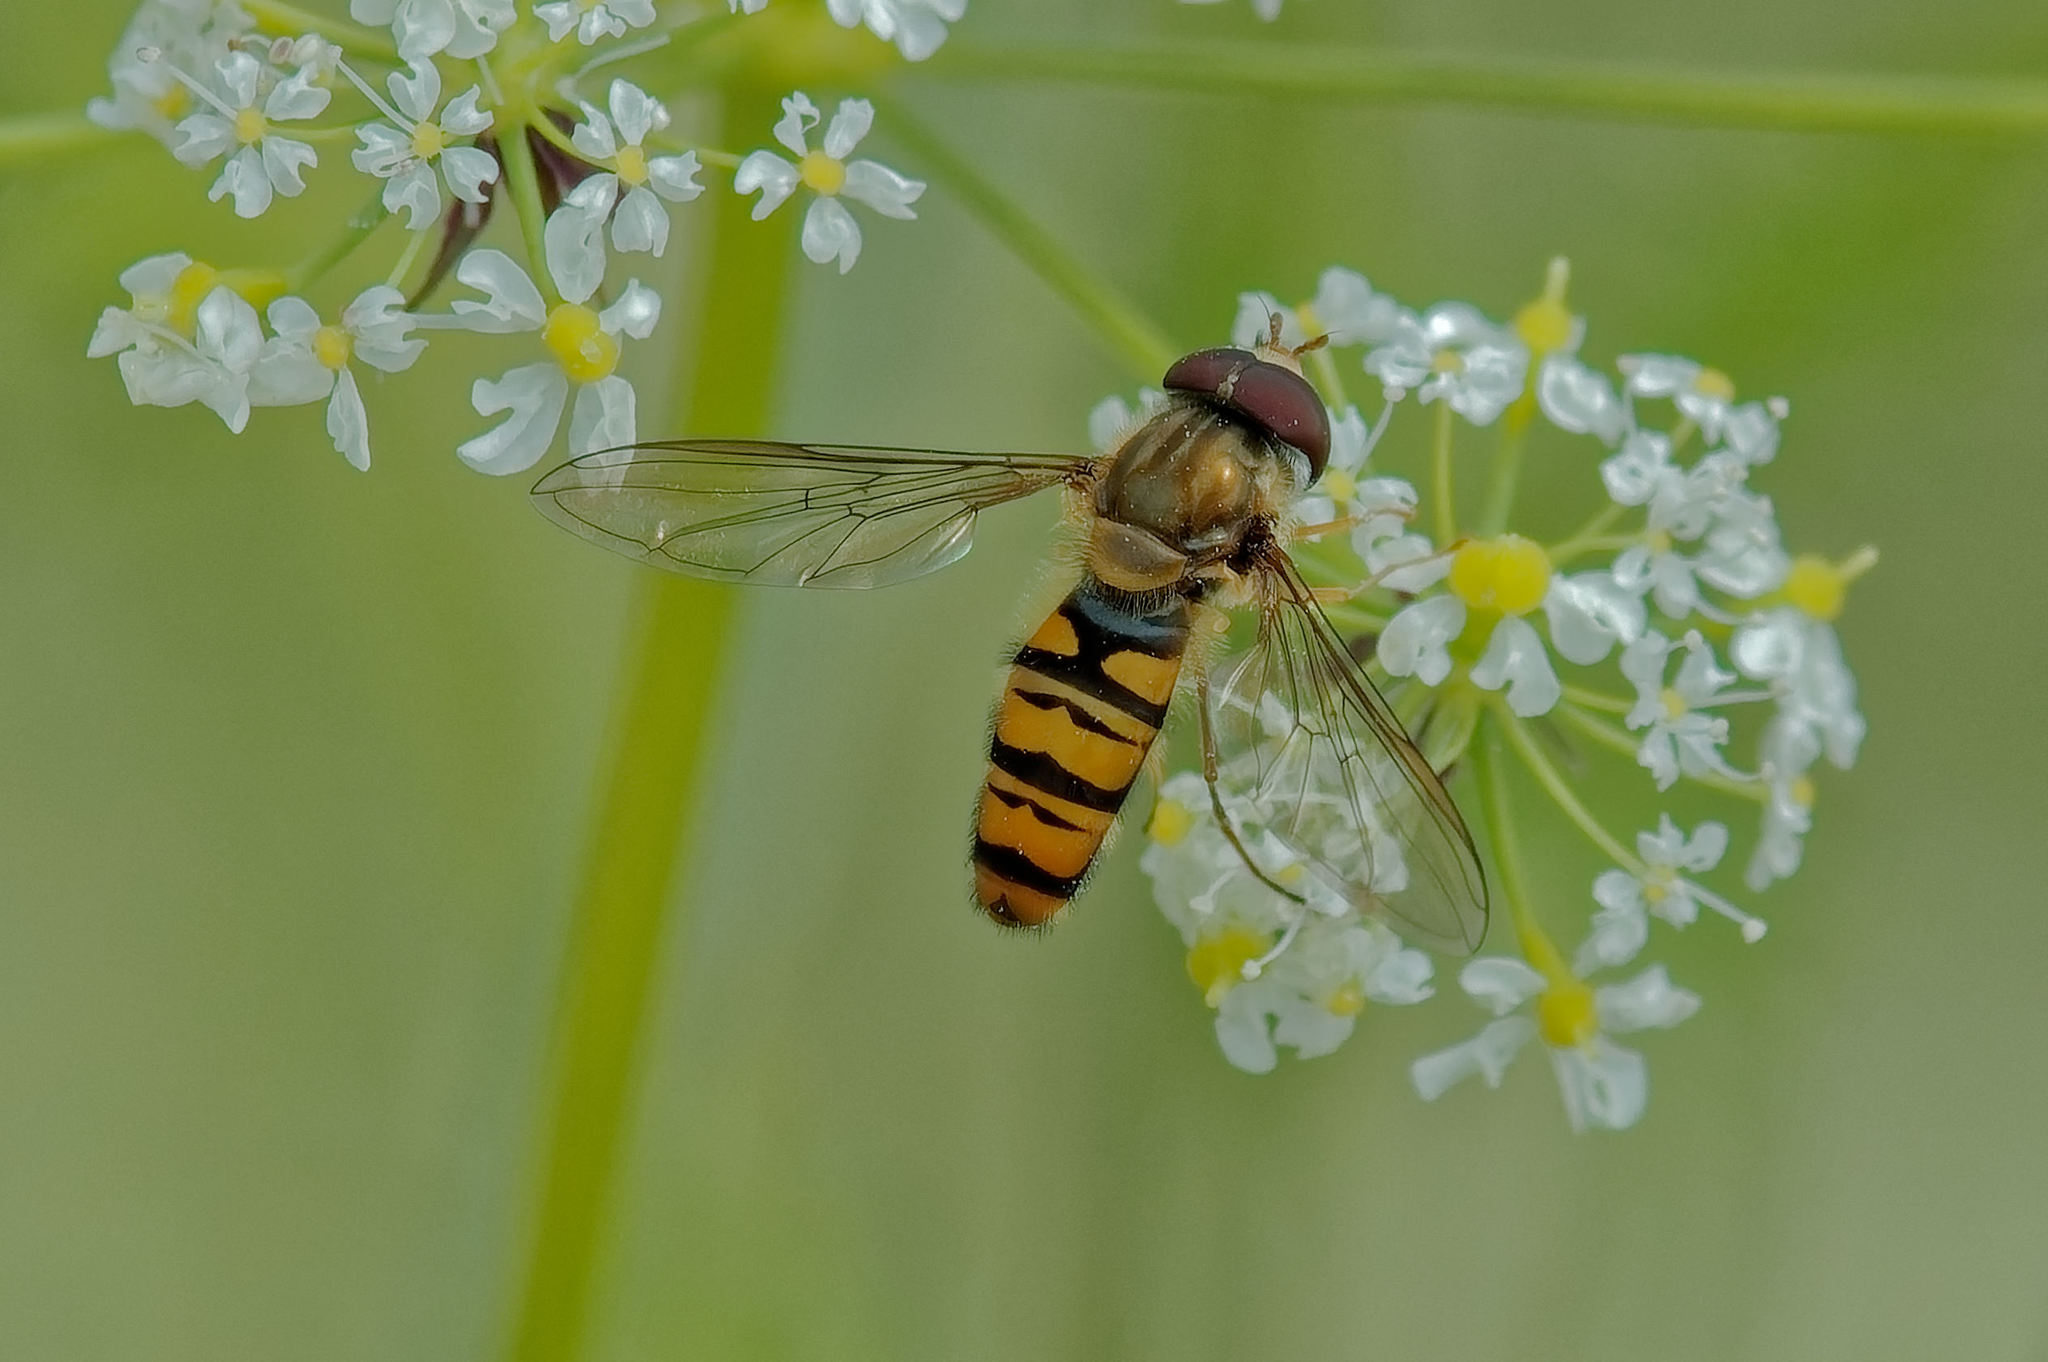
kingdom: Animalia
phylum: Arthropoda
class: Insecta
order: Diptera
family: Syrphidae
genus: Episyrphus
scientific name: Episyrphus balteatus
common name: Marmalade hoverfly
